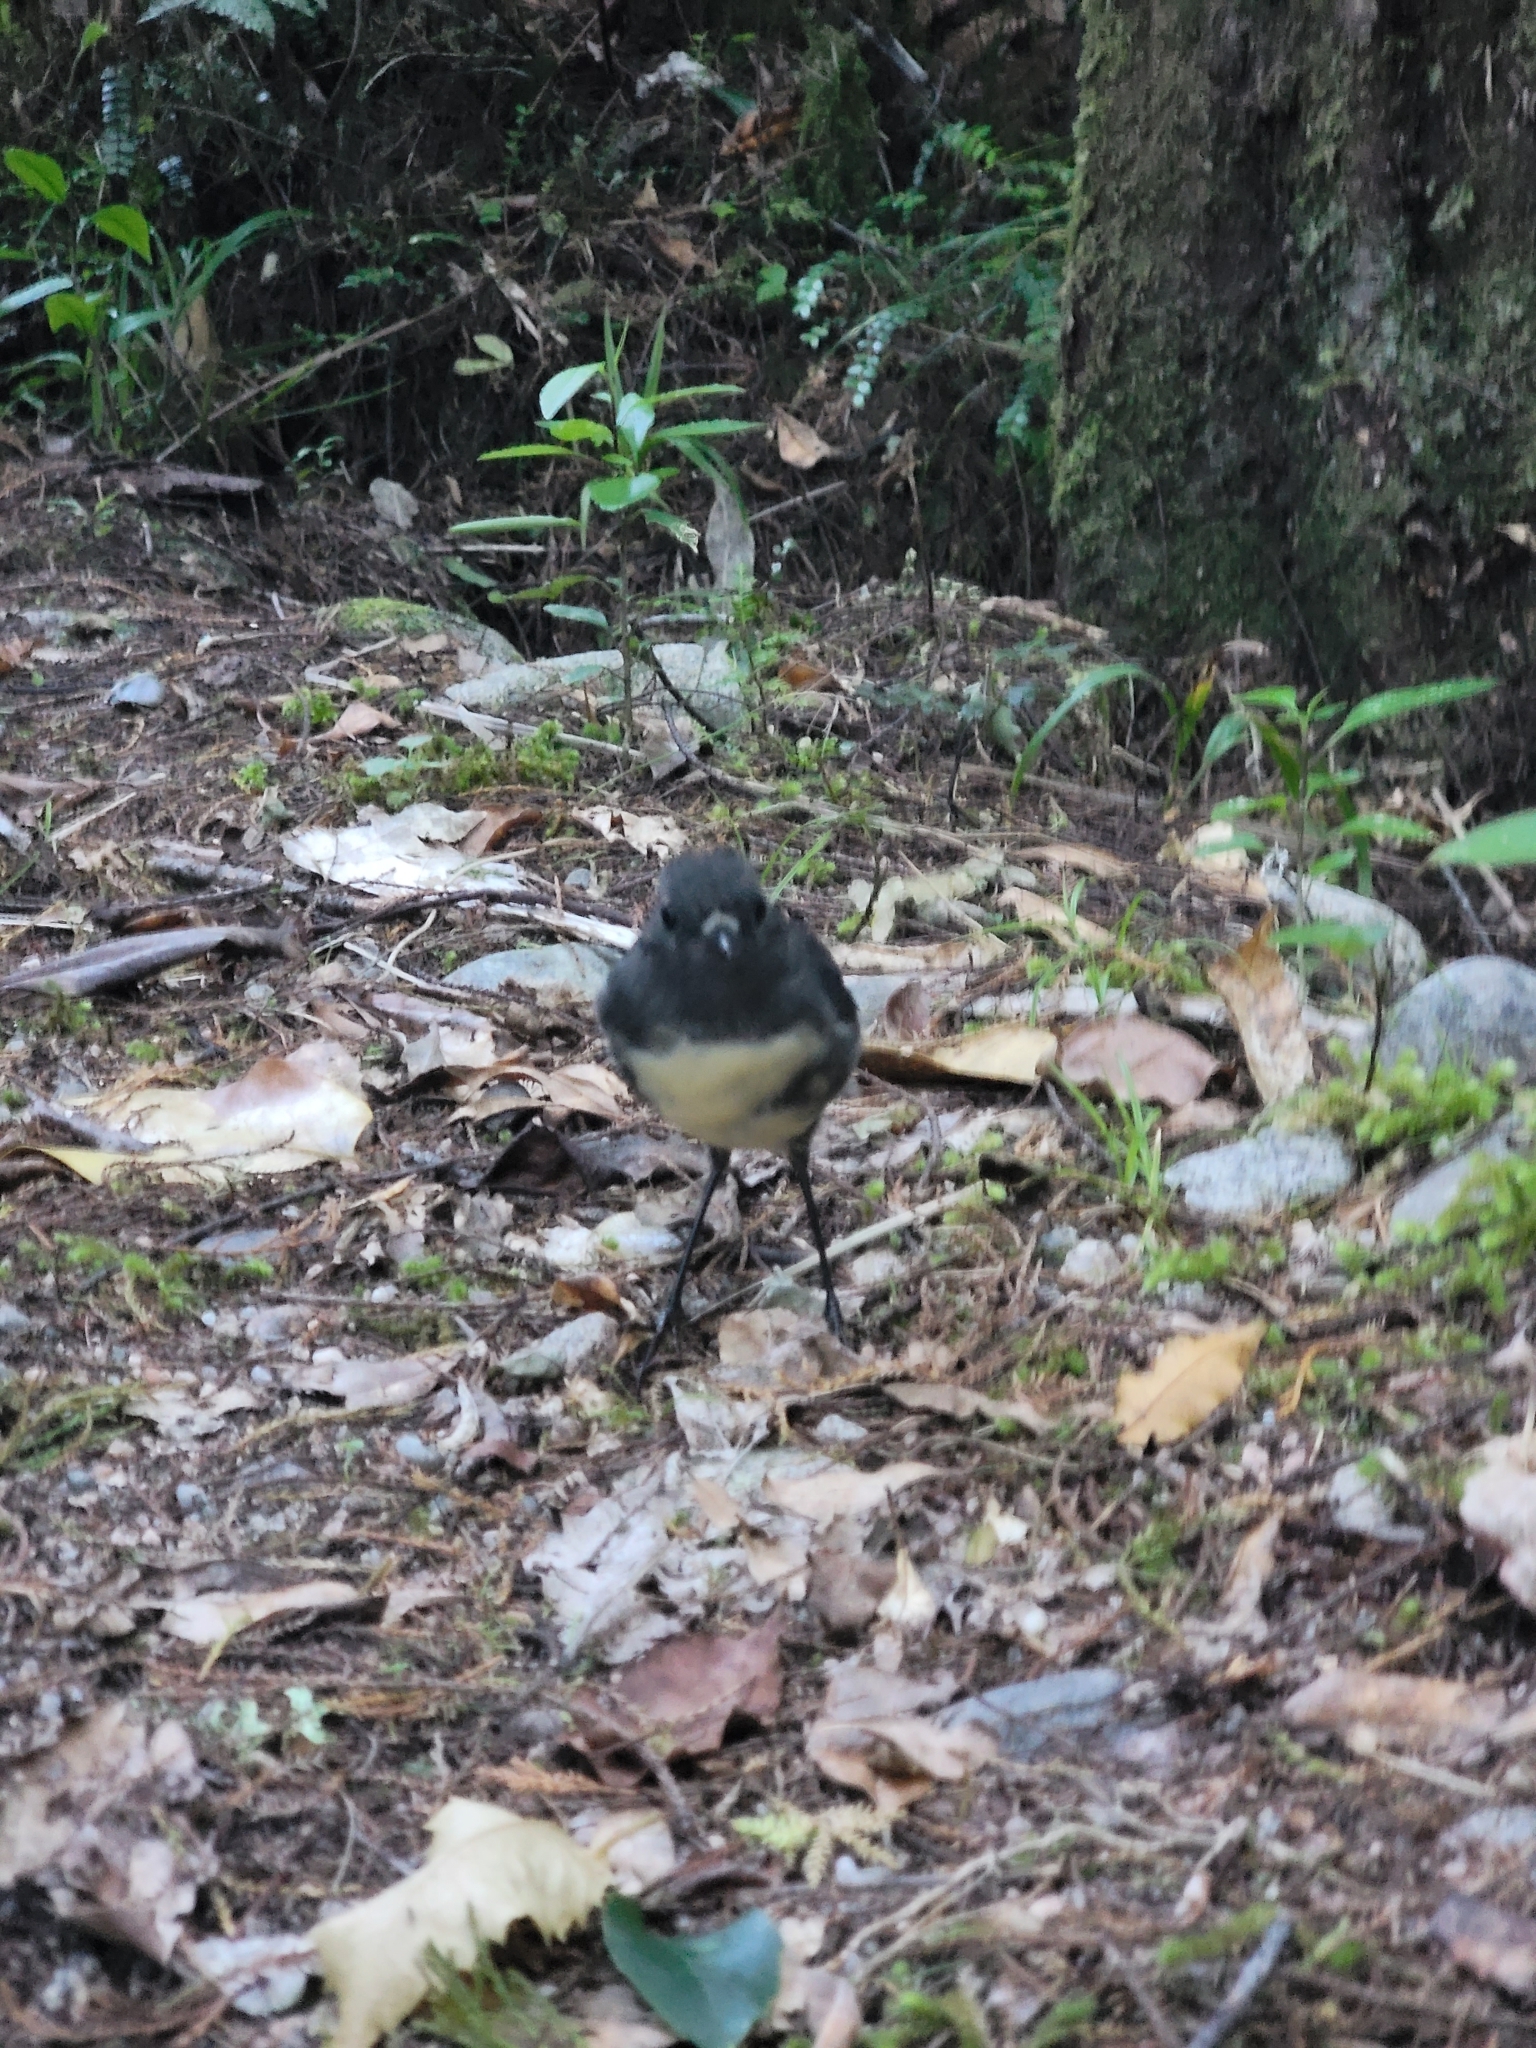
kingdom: Animalia
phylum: Chordata
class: Aves
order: Passeriformes
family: Petroicidae
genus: Petroica
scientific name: Petroica australis
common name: New zealand robin
